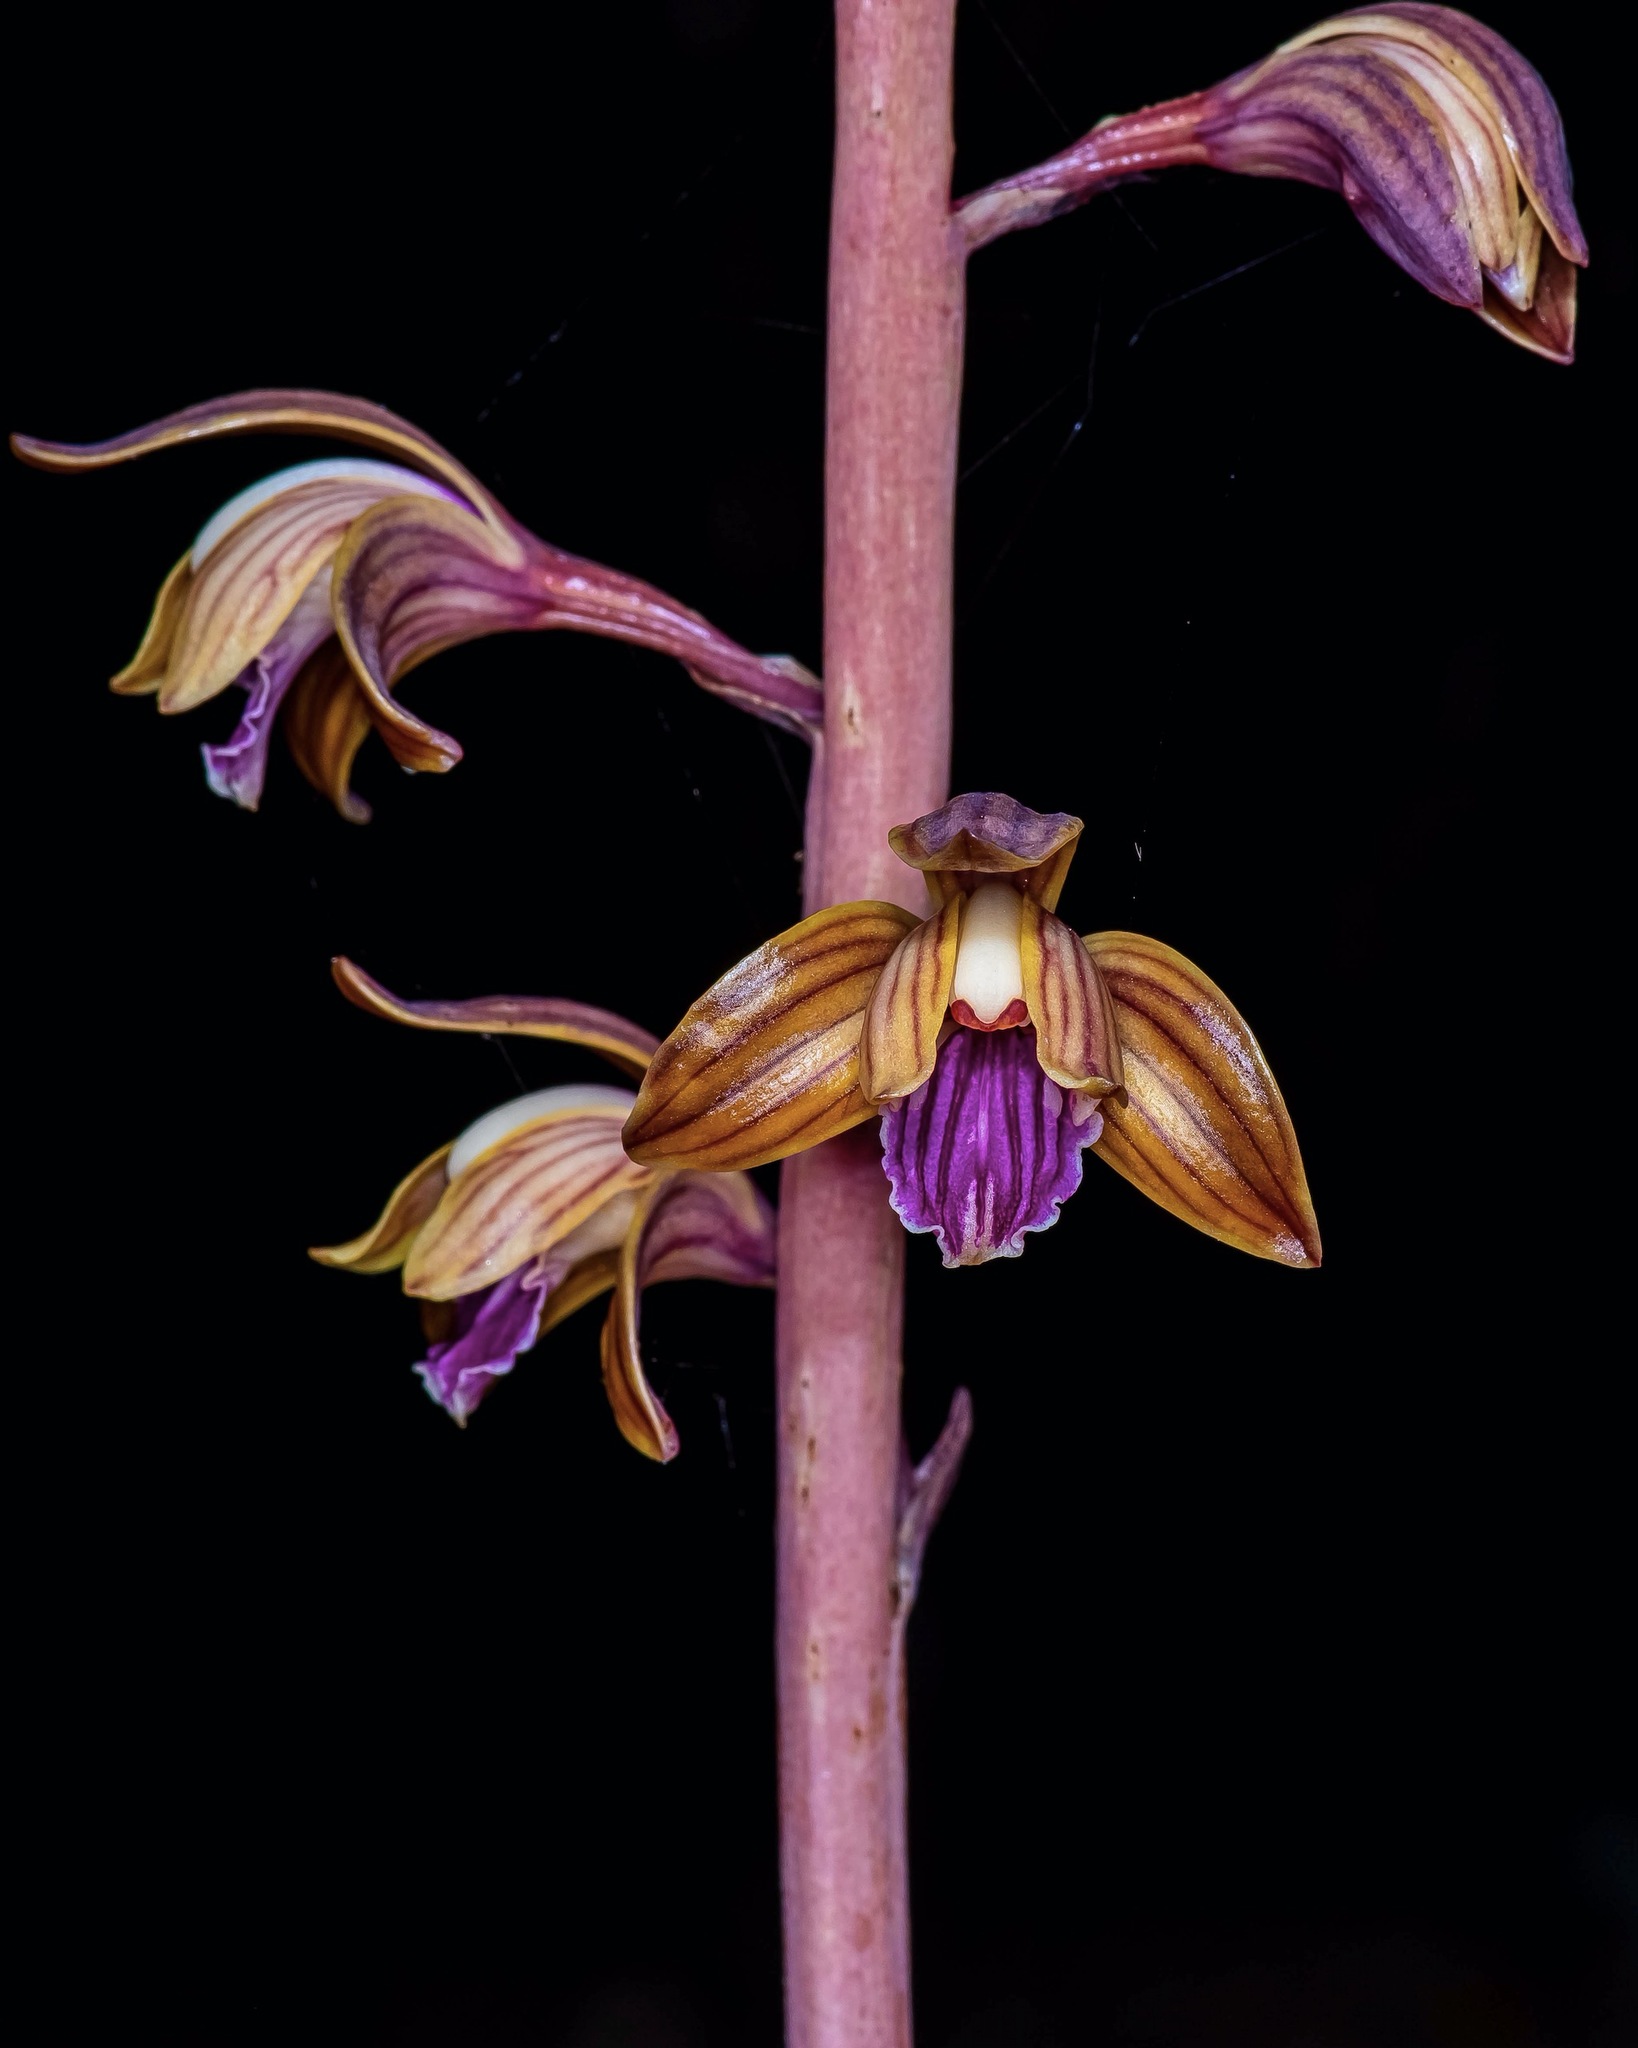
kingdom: Plantae
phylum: Tracheophyta
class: Liliopsida
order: Asparagales
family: Orchidaceae
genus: Bletia
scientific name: Bletia spicata
